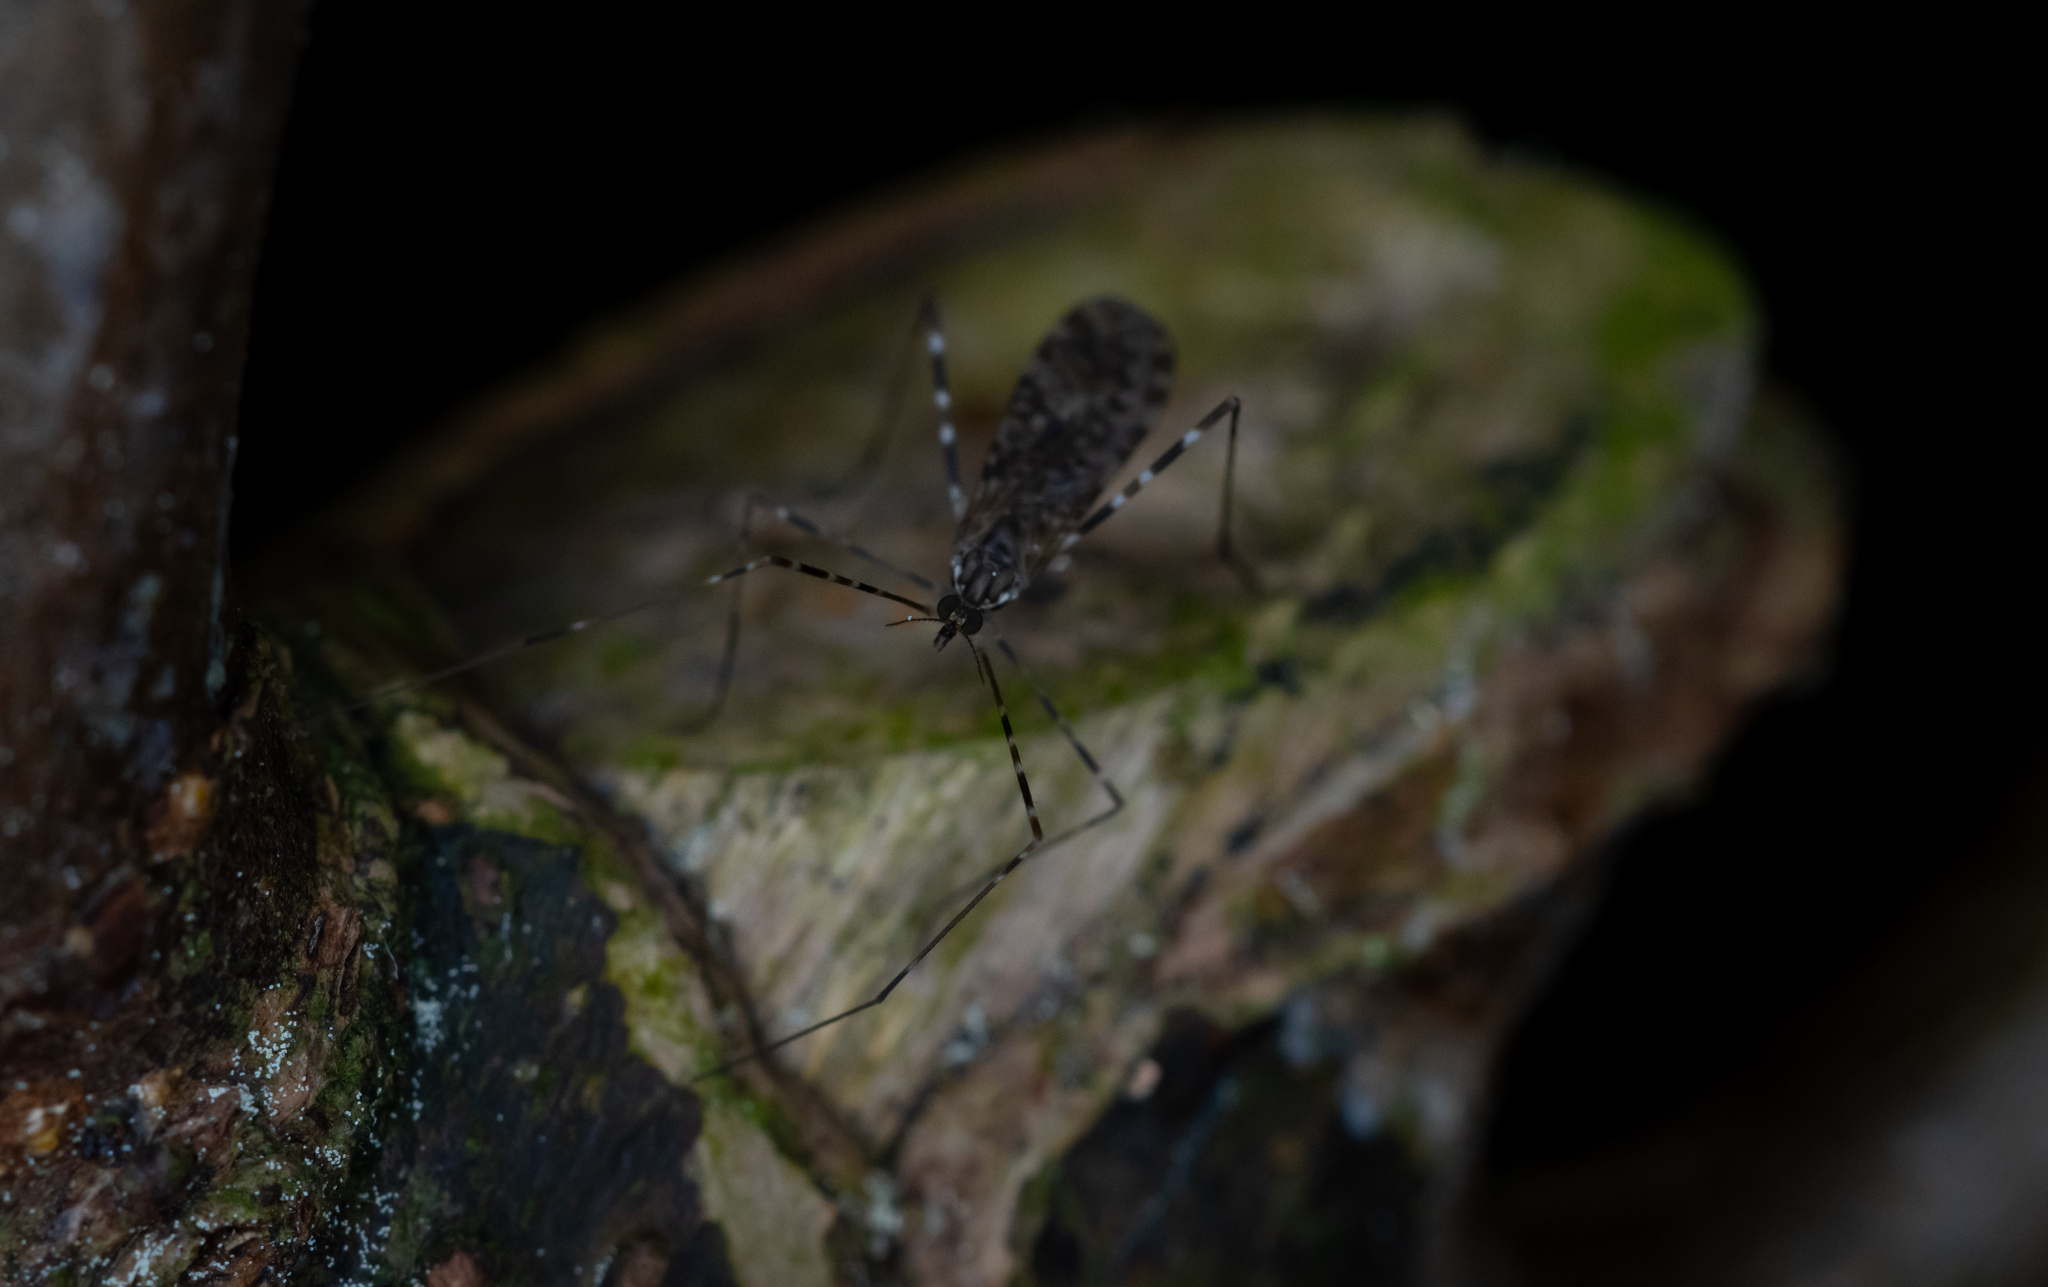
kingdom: Animalia
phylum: Arthropoda
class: Insecta
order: Diptera
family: Limoniidae
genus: Amphineurus
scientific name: Amphineurus hudsoni
